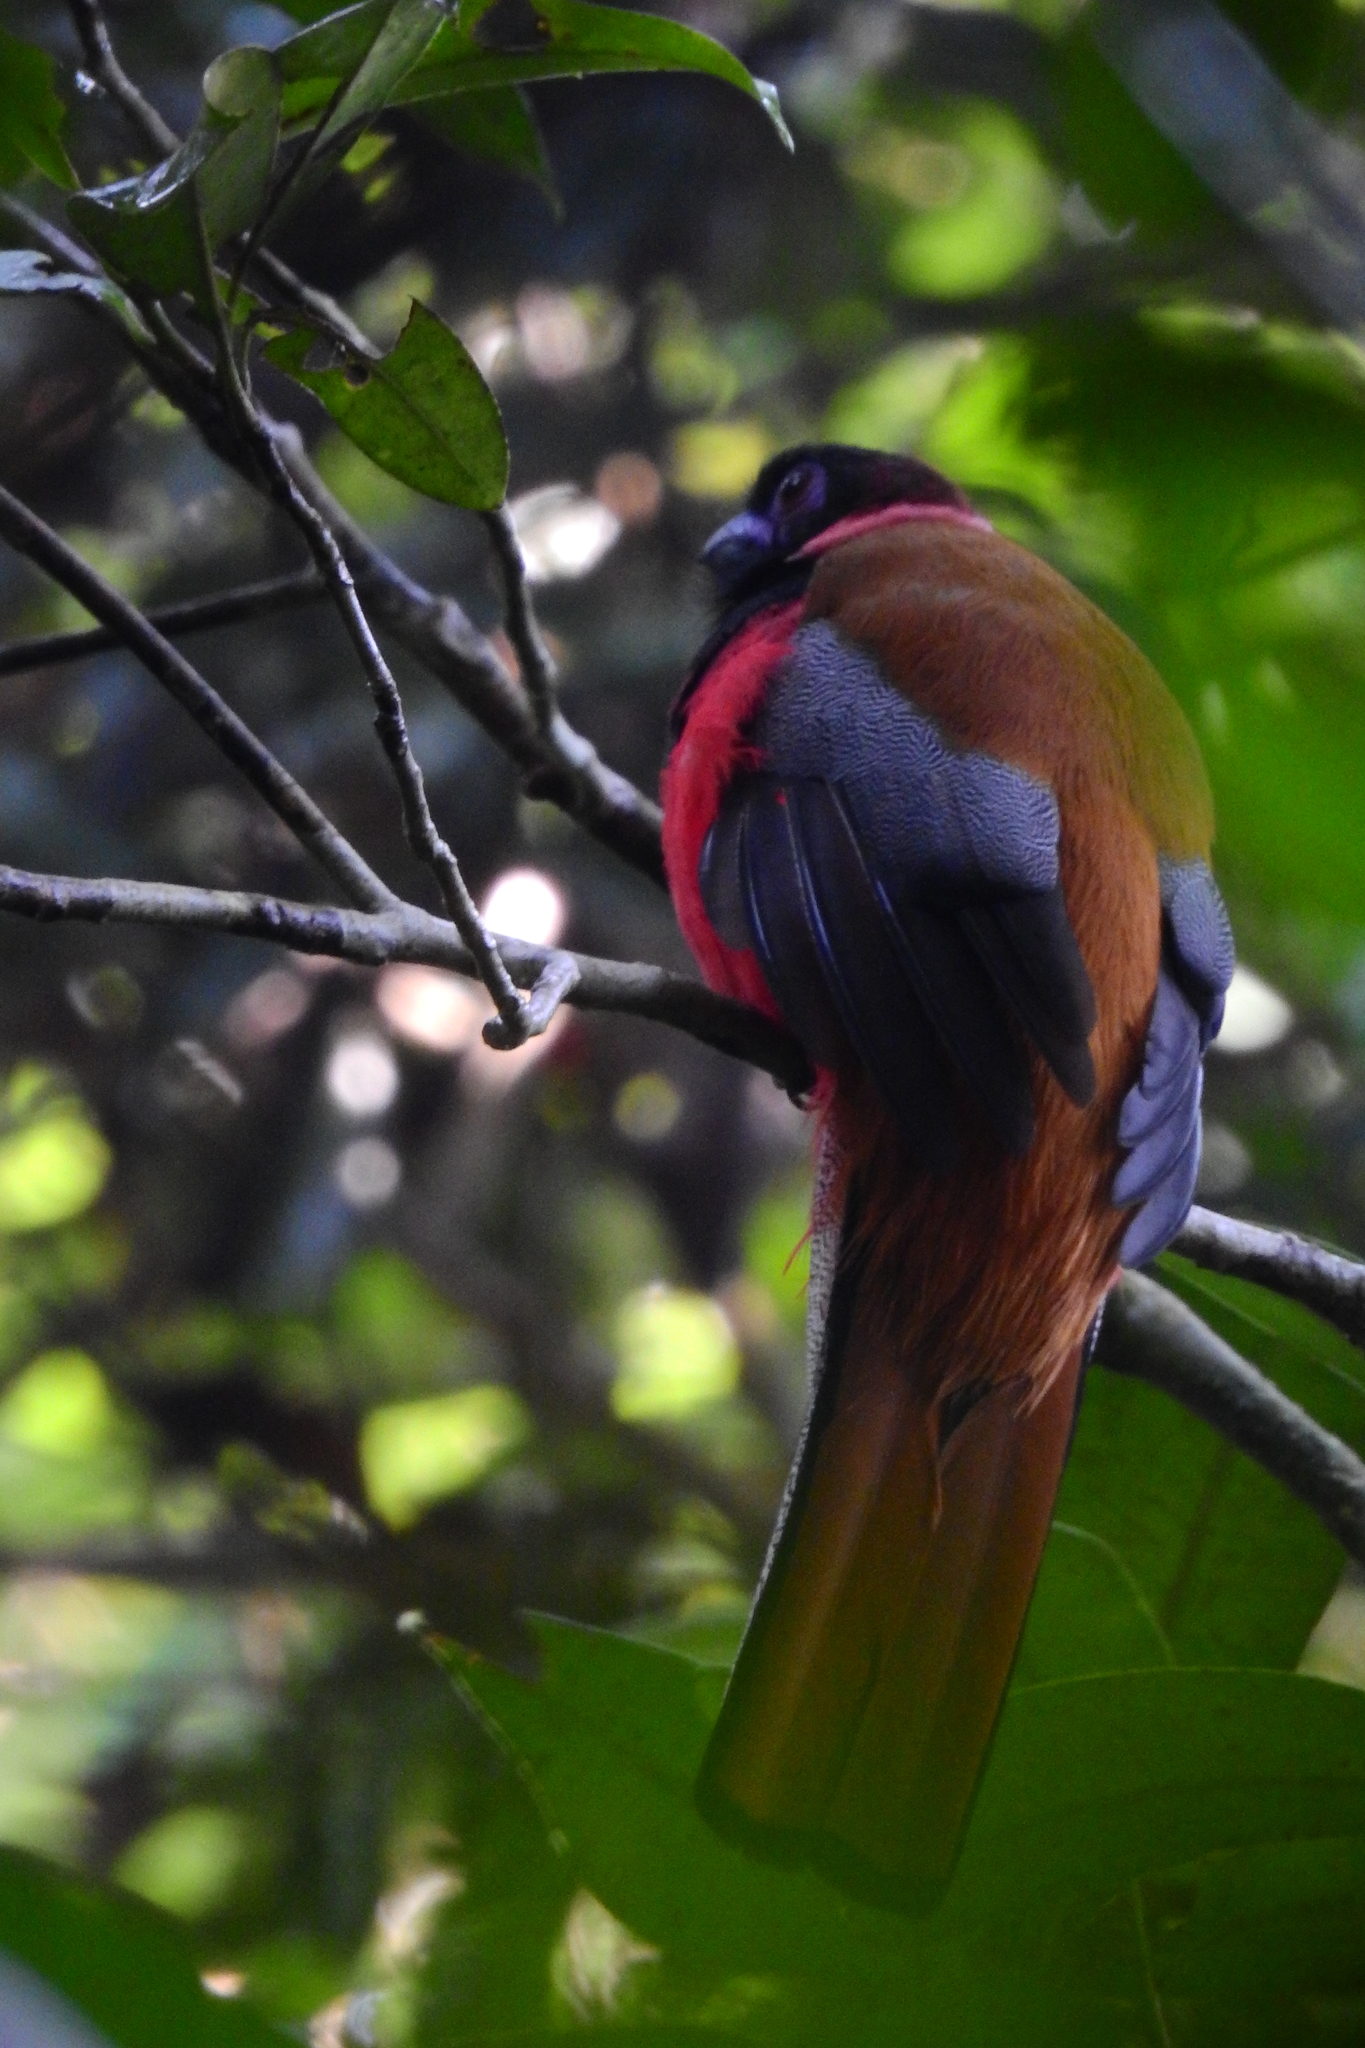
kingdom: Animalia
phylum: Chordata
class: Aves
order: Trogoniformes
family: Trogonidae
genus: Harpactes
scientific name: Harpactes diardii
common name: Diard's trogon
